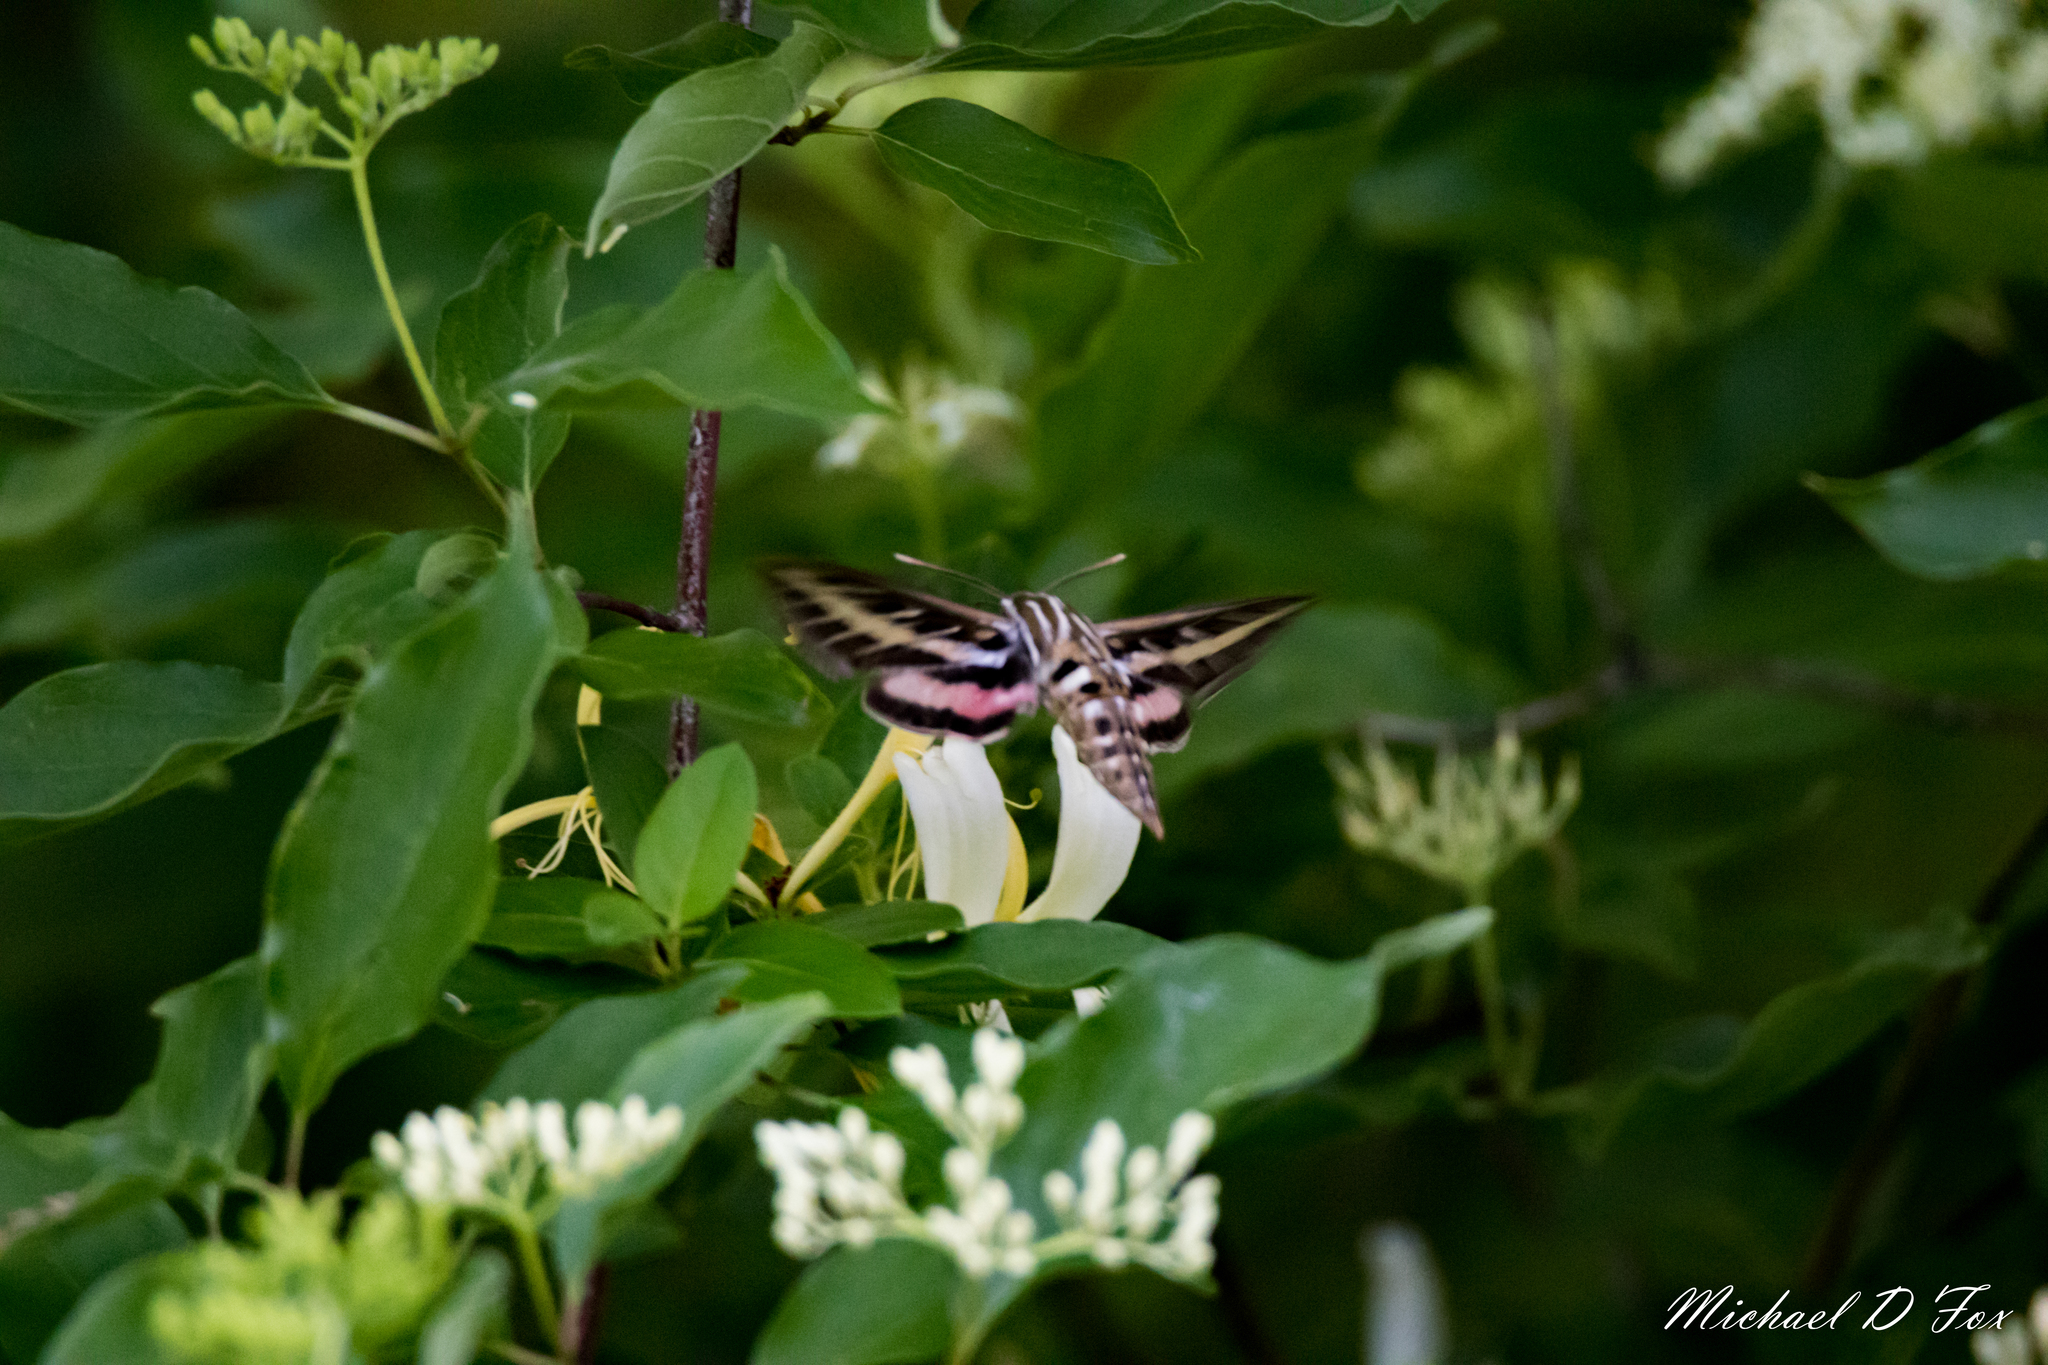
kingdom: Animalia
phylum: Arthropoda
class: Insecta
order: Lepidoptera
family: Sphingidae
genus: Hyles
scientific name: Hyles lineata
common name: White-lined sphinx
